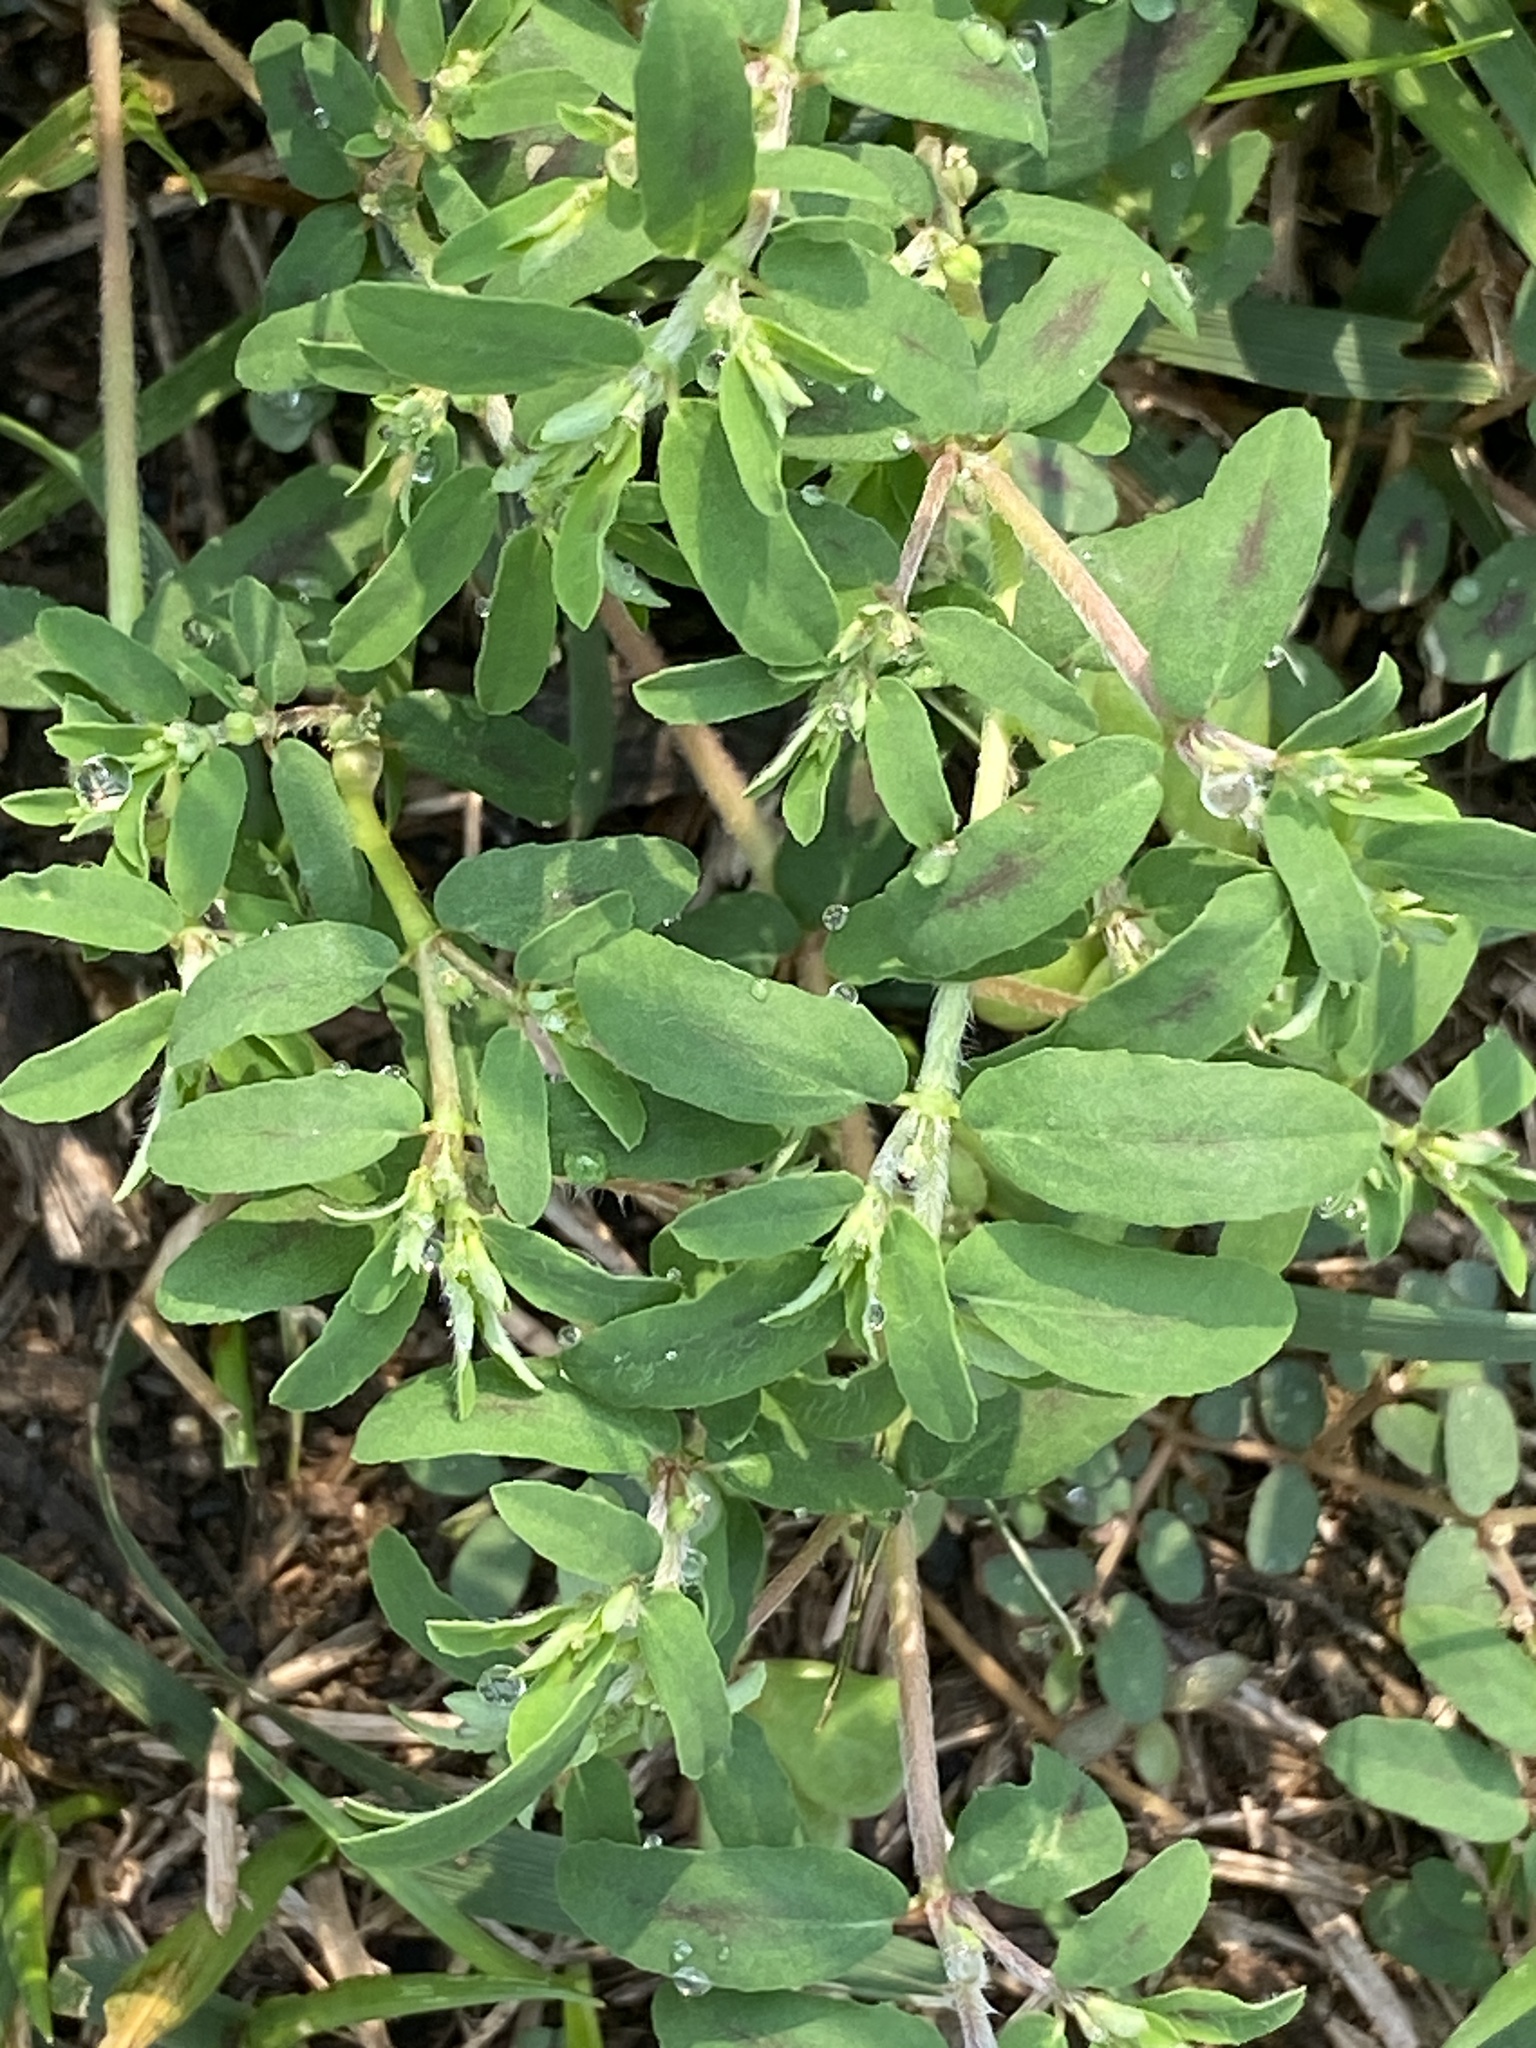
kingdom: Plantae
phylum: Tracheophyta
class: Magnoliopsida
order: Malpighiales
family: Euphorbiaceae
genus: Euphorbia
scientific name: Euphorbia maculata
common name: Spotted spurge
